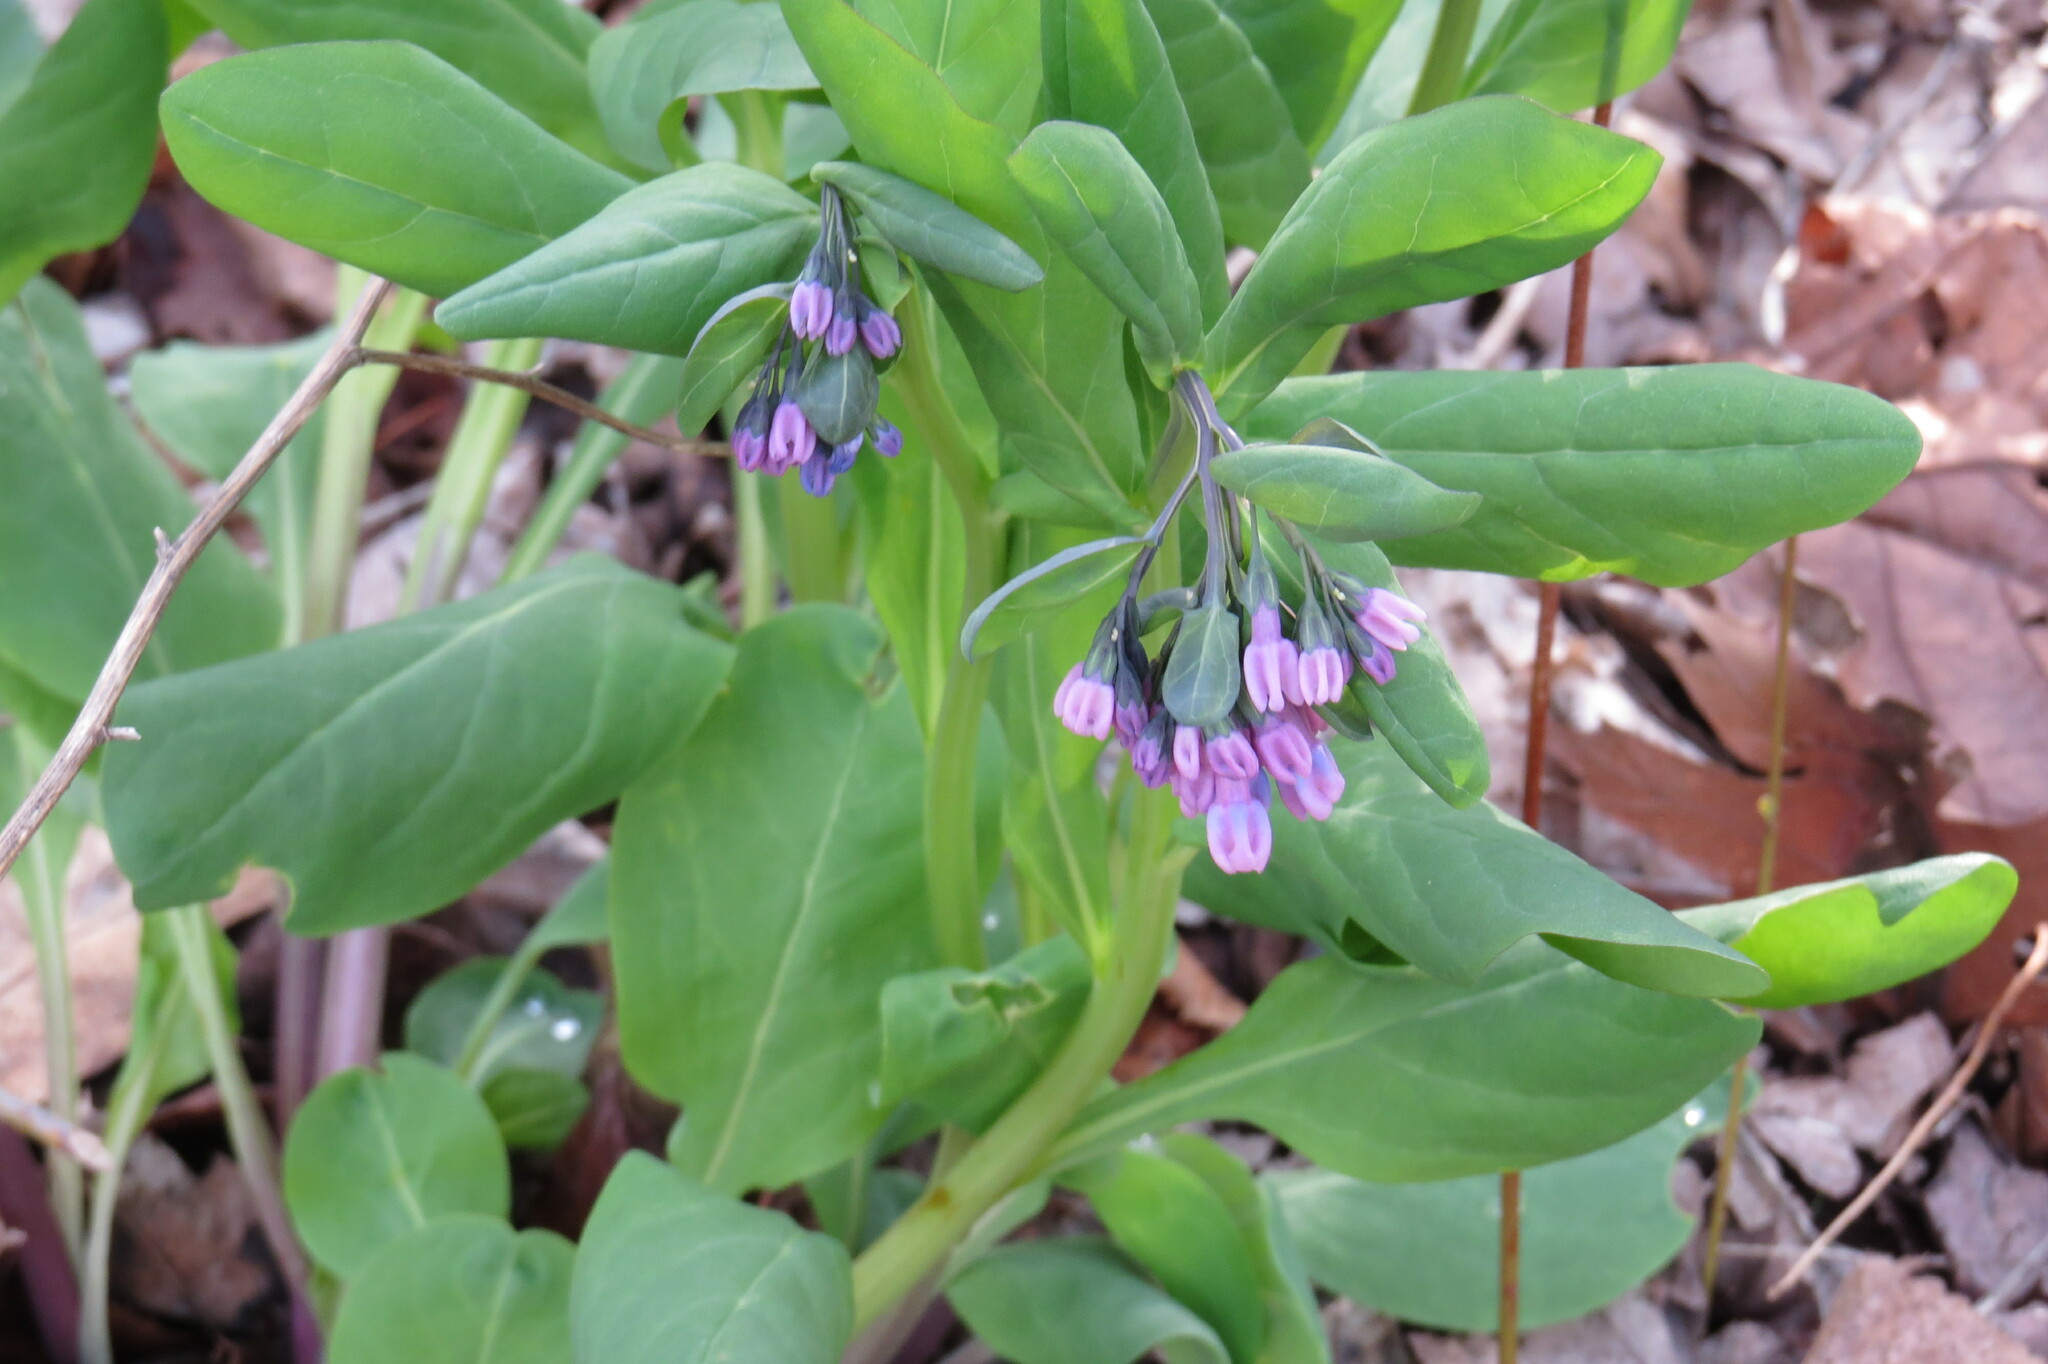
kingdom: Plantae
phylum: Tracheophyta
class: Magnoliopsida
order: Boraginales
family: Boraginaceae
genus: Mertensia
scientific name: Mertensia virginica
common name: Virginia bluebells
